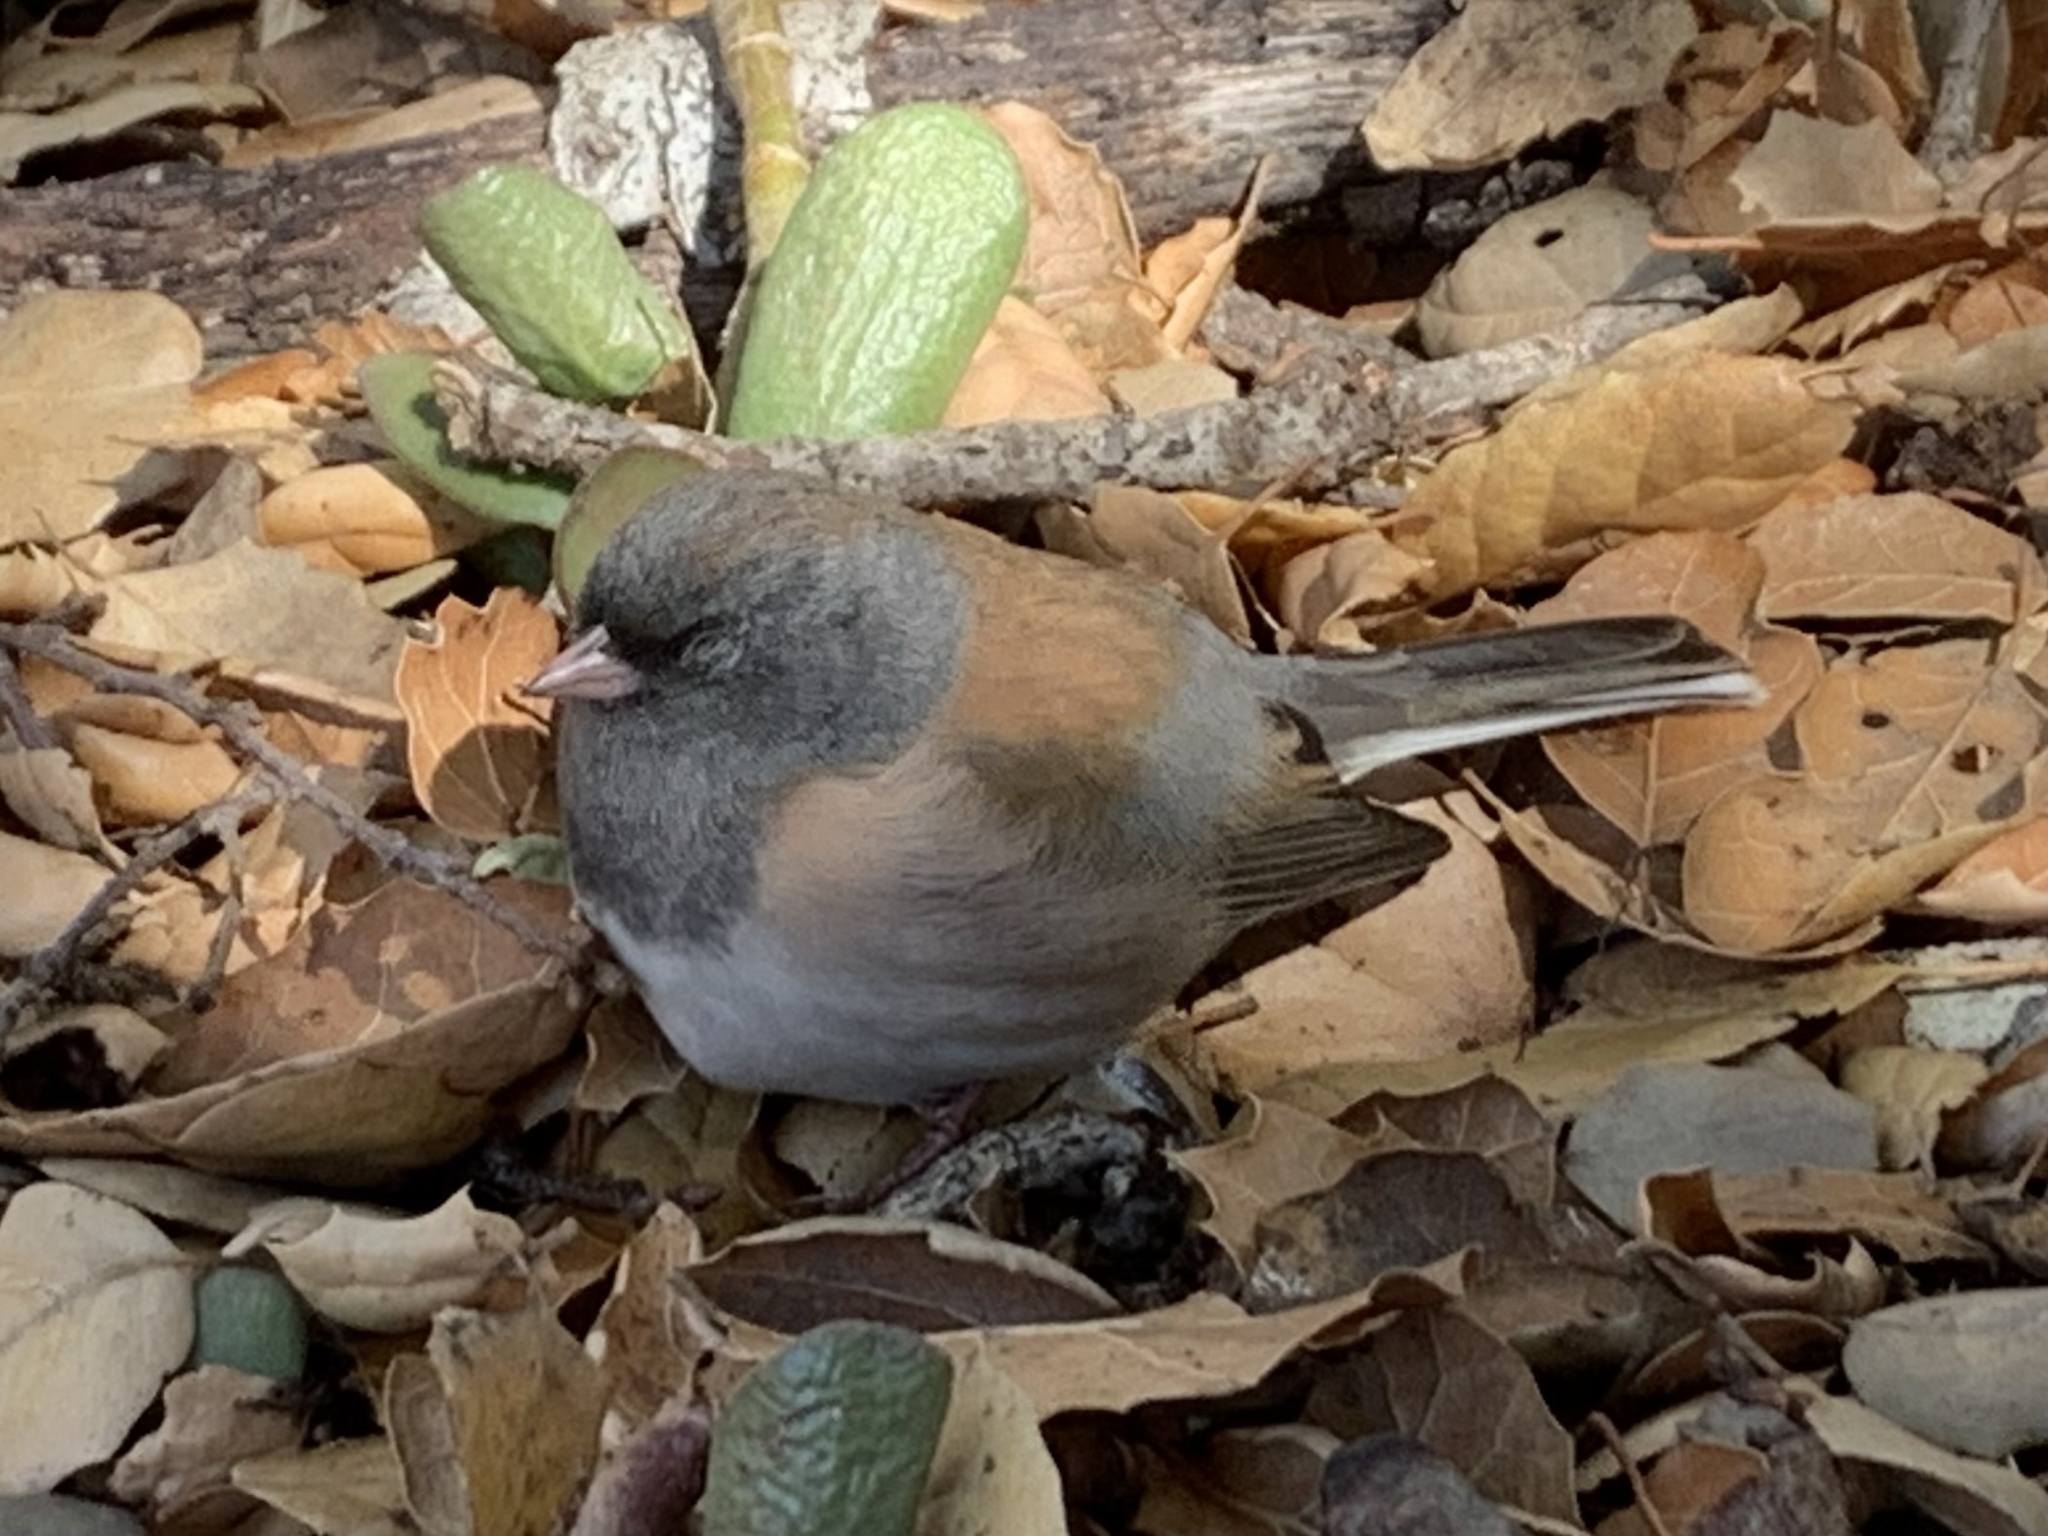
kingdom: Animalia
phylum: Chordata
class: Aves
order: Passeriformes
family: Passerellidae
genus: Junco
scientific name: Junco hyemalis
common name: Dark-eyed junco
